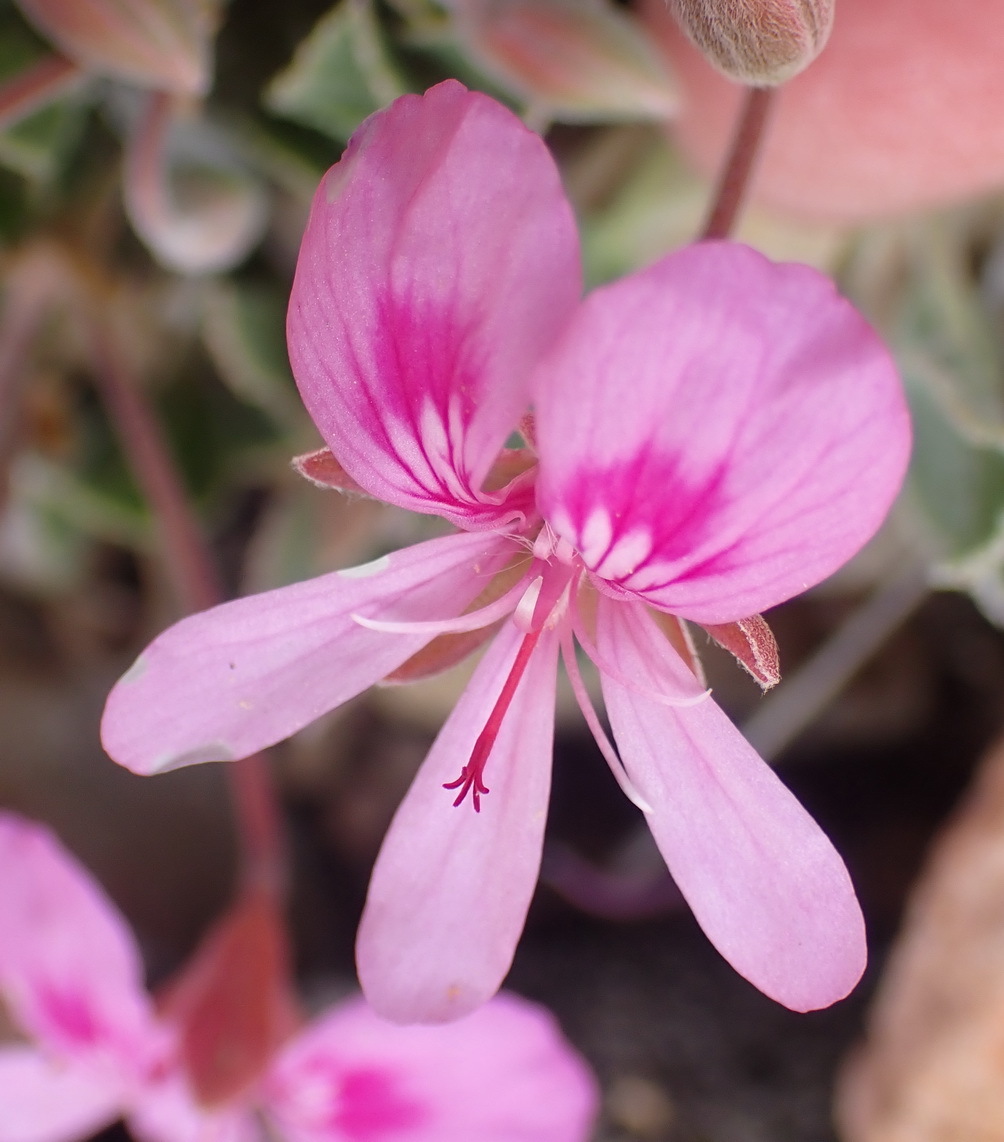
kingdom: Plantae
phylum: Tracheophyta
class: Magnoliopsida
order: Geraniales
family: Geraniaceae
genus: Pelargonium
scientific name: Pelargonium ovale
